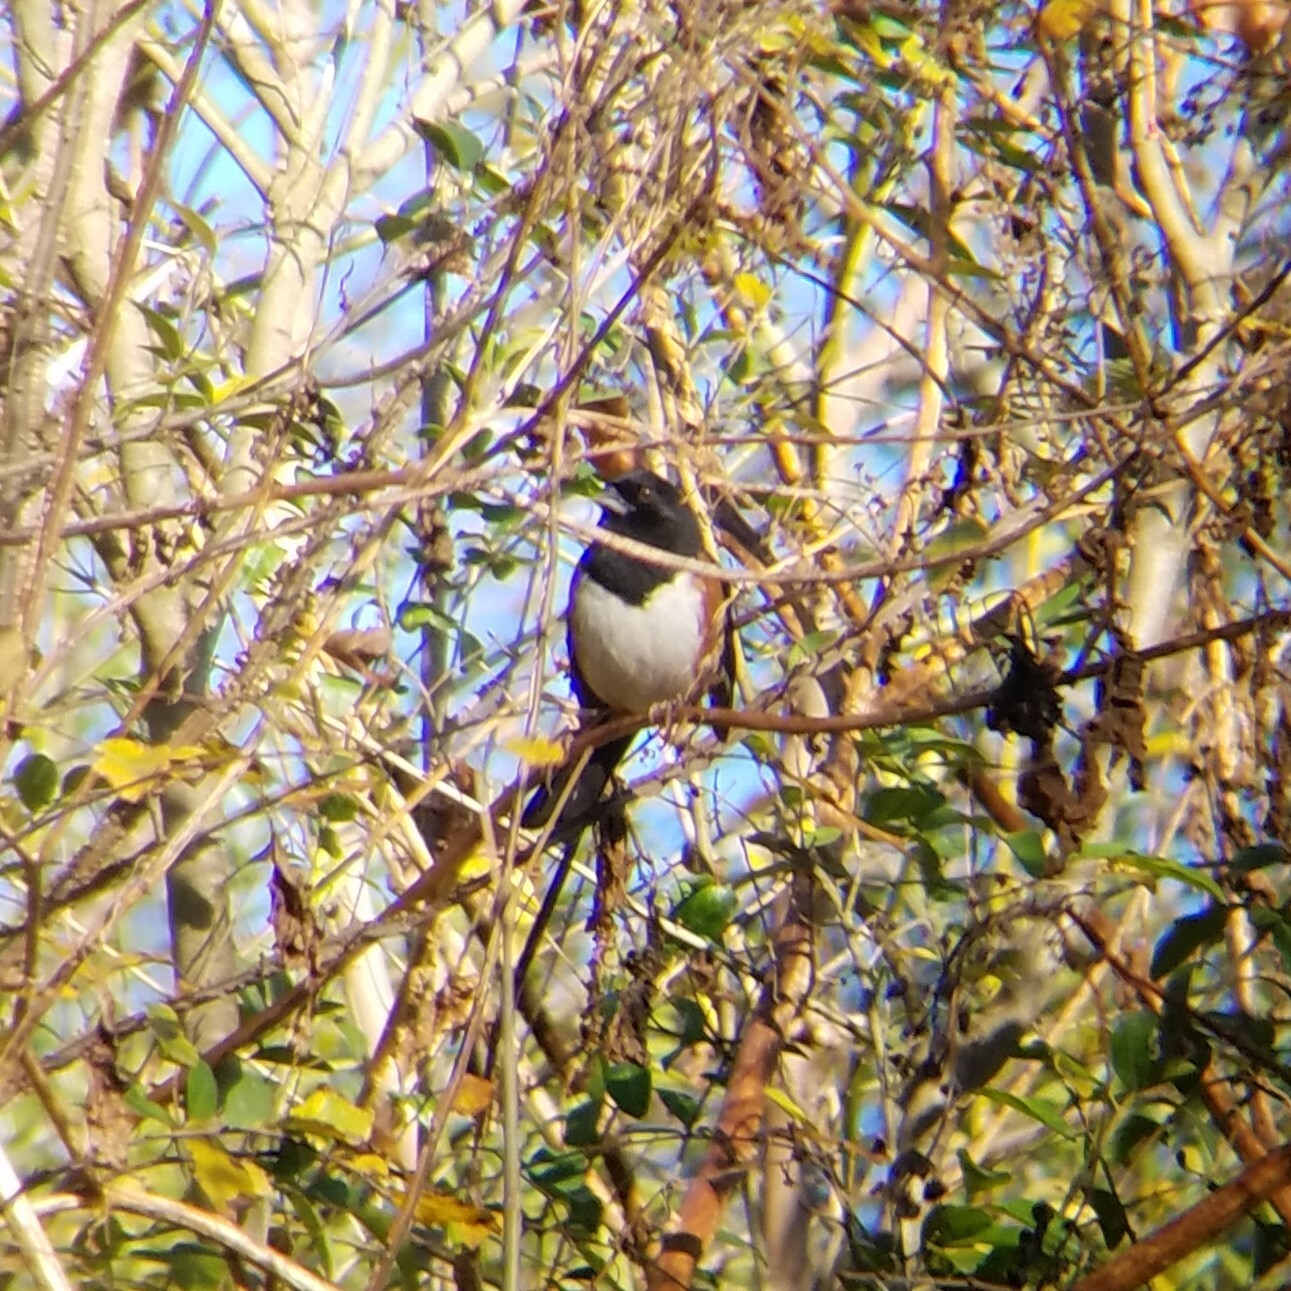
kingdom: Animalia
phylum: Chordata
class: Aves
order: Passeriformes
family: Passerellidae
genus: Pipilo
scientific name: Pipilo erythrophthalmus
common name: Eastern towhee
